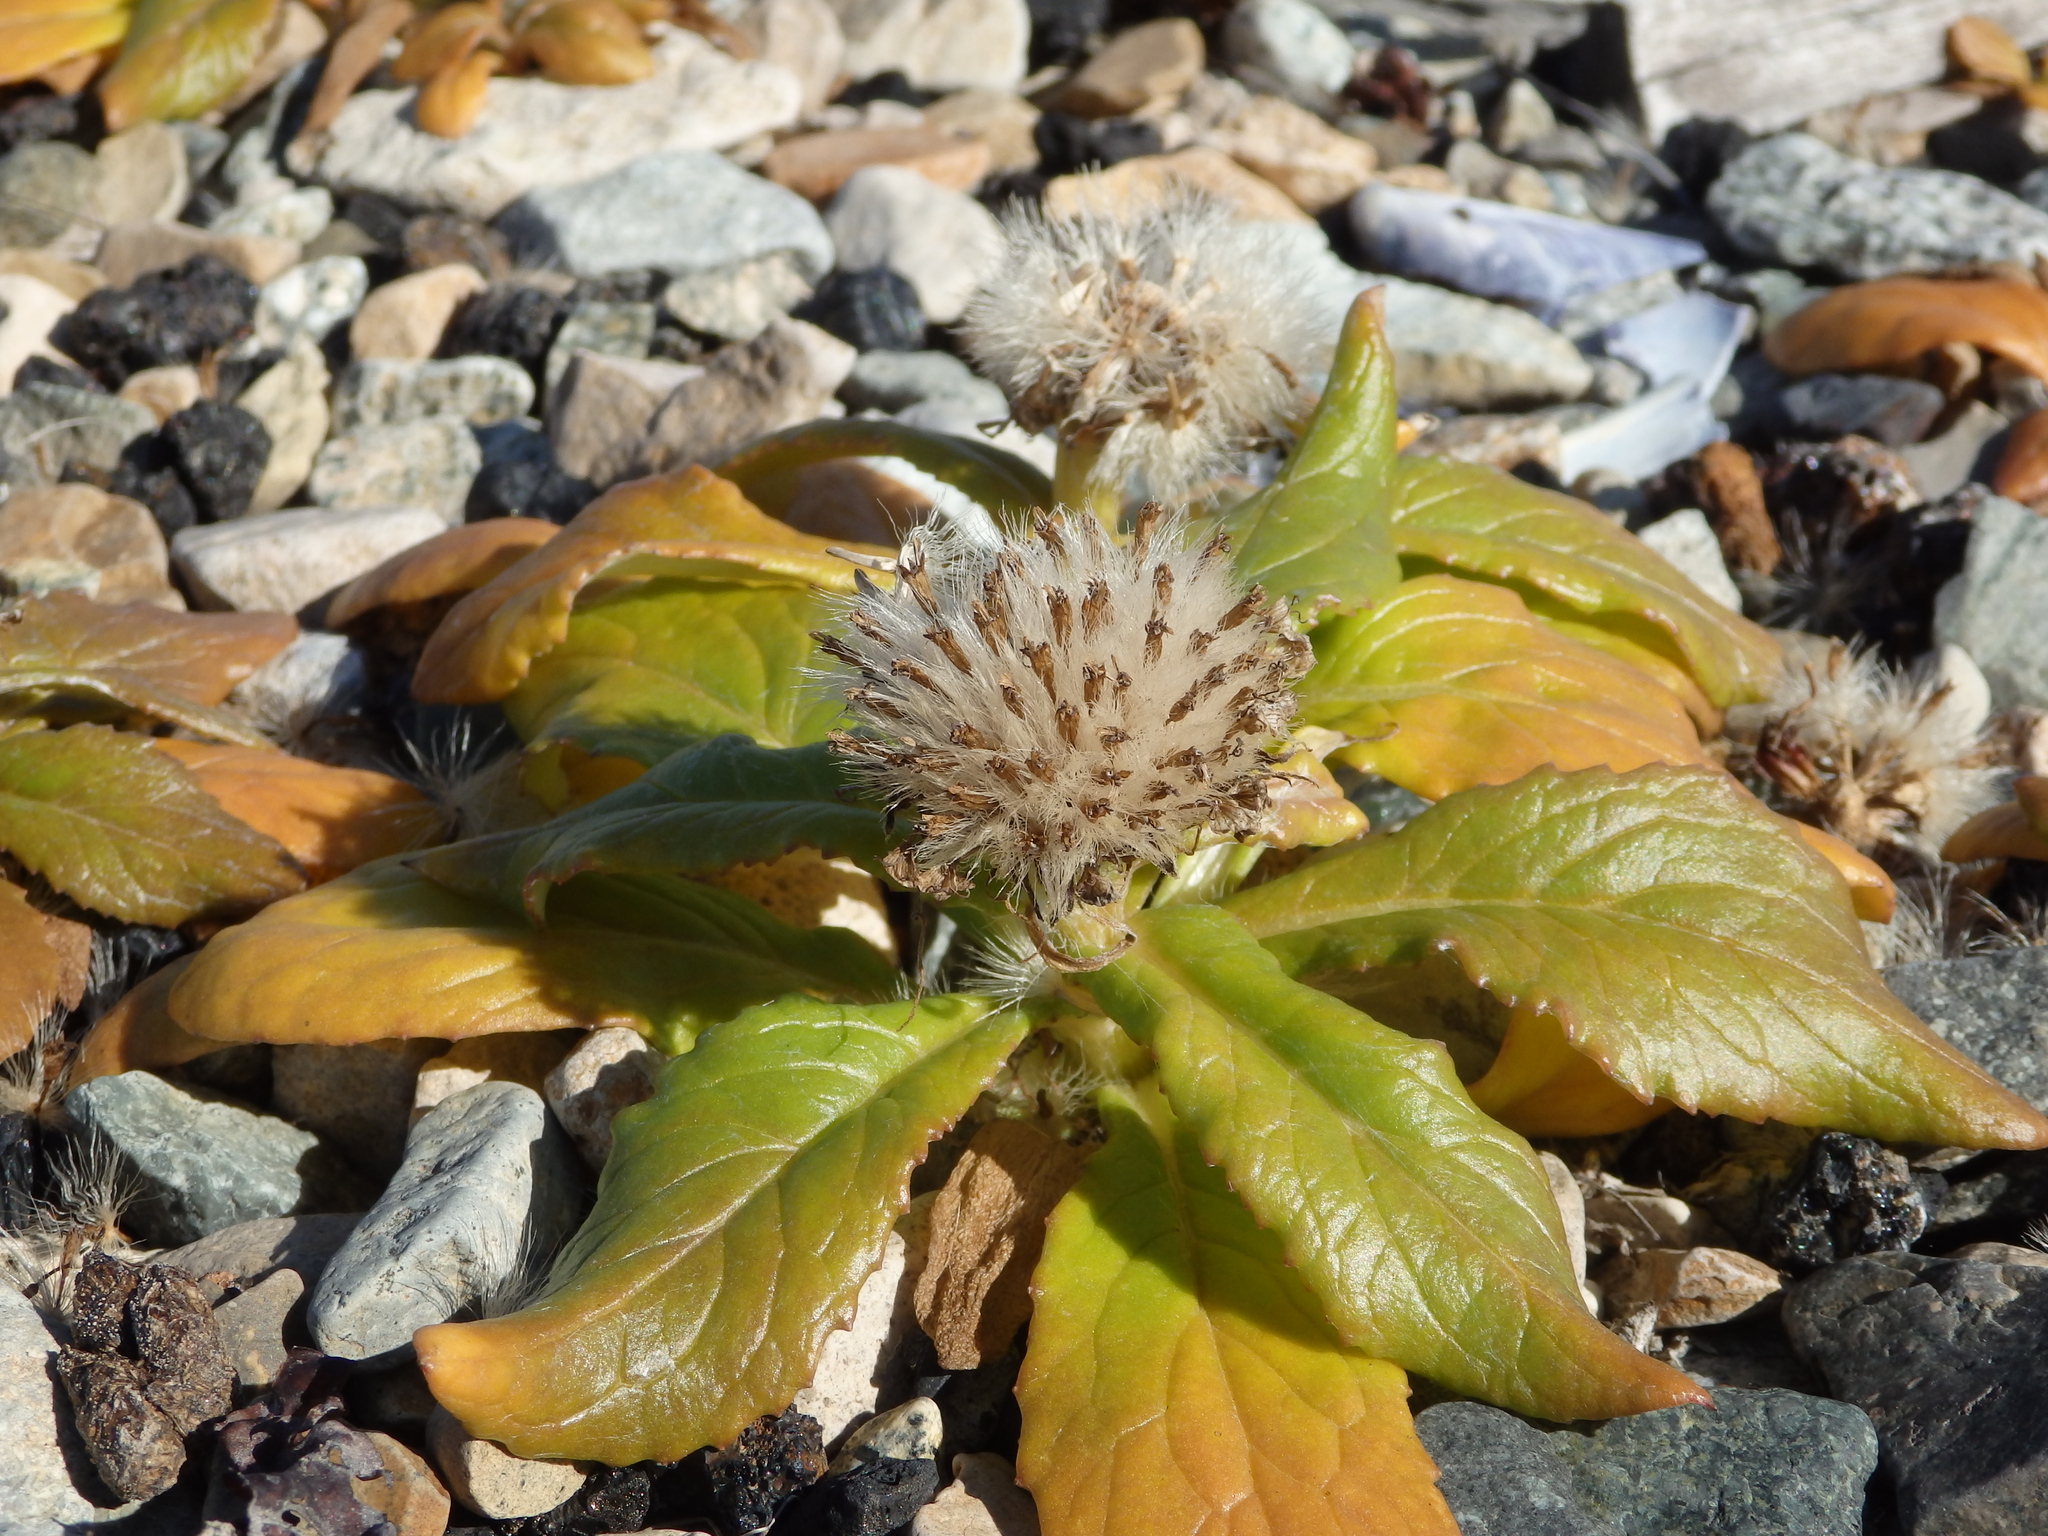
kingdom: Plantae
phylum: Tracheophyta
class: Magnoliopsida
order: Asterales
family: Asteraceae
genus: Jacobaea
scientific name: Jacobaea pseudoarnica
